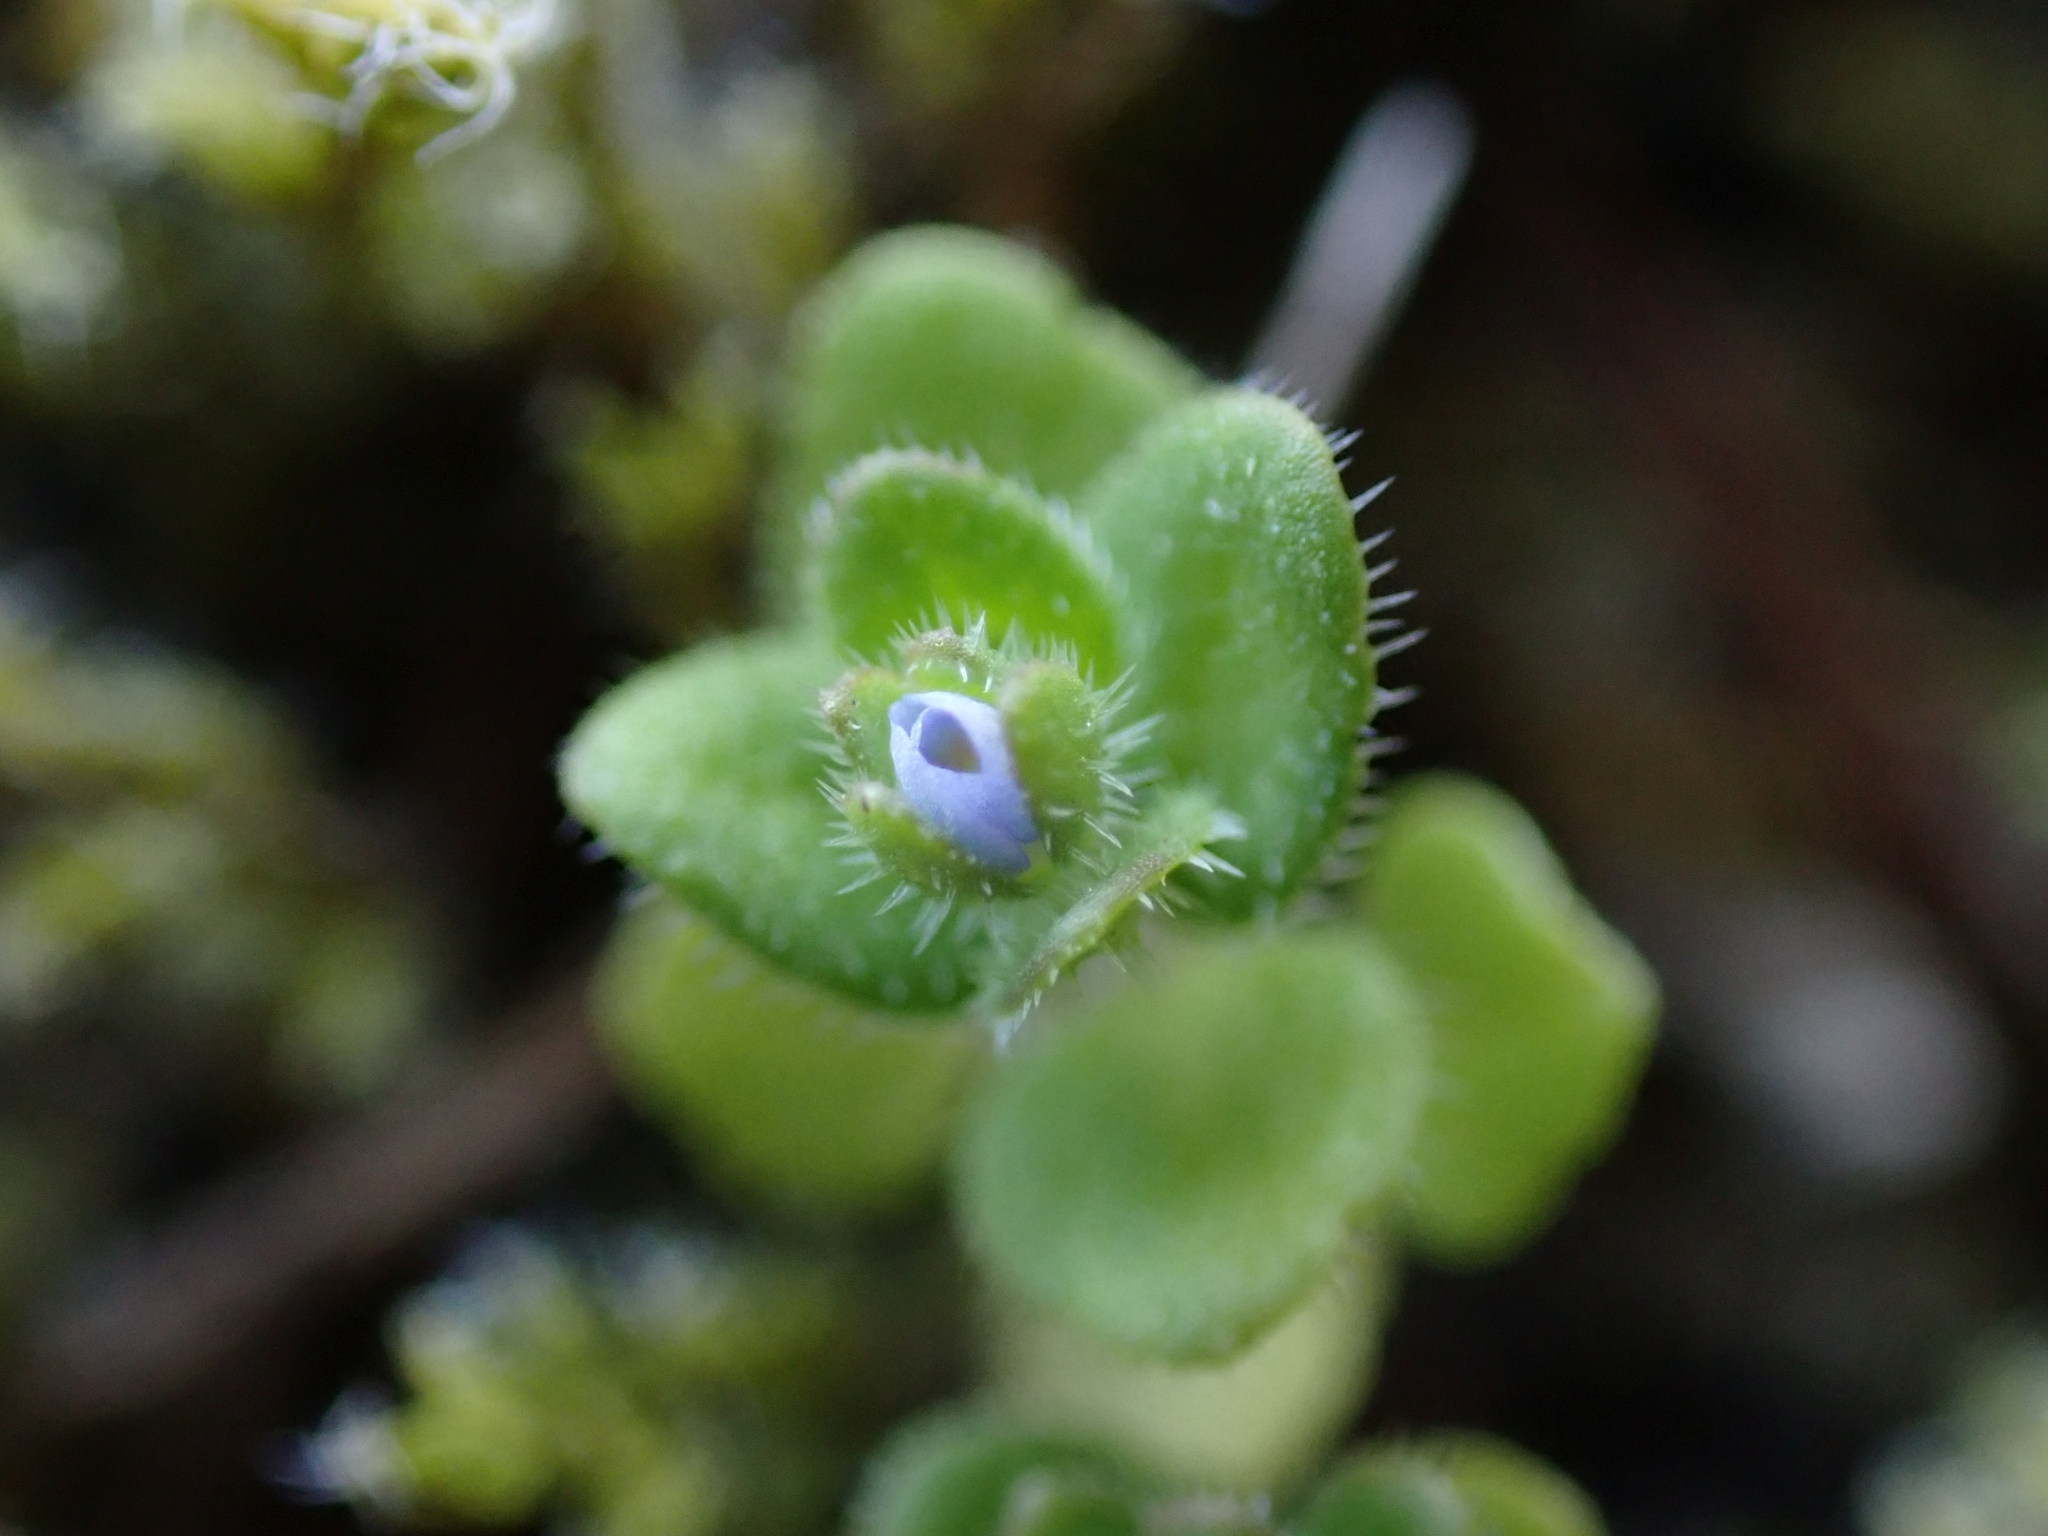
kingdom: Plantae
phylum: Tracheophyta
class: Magnoliopsida
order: Lamiales
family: Plantaginaceae
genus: Veronica
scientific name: Veronica arvensis
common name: Corn speedwell
